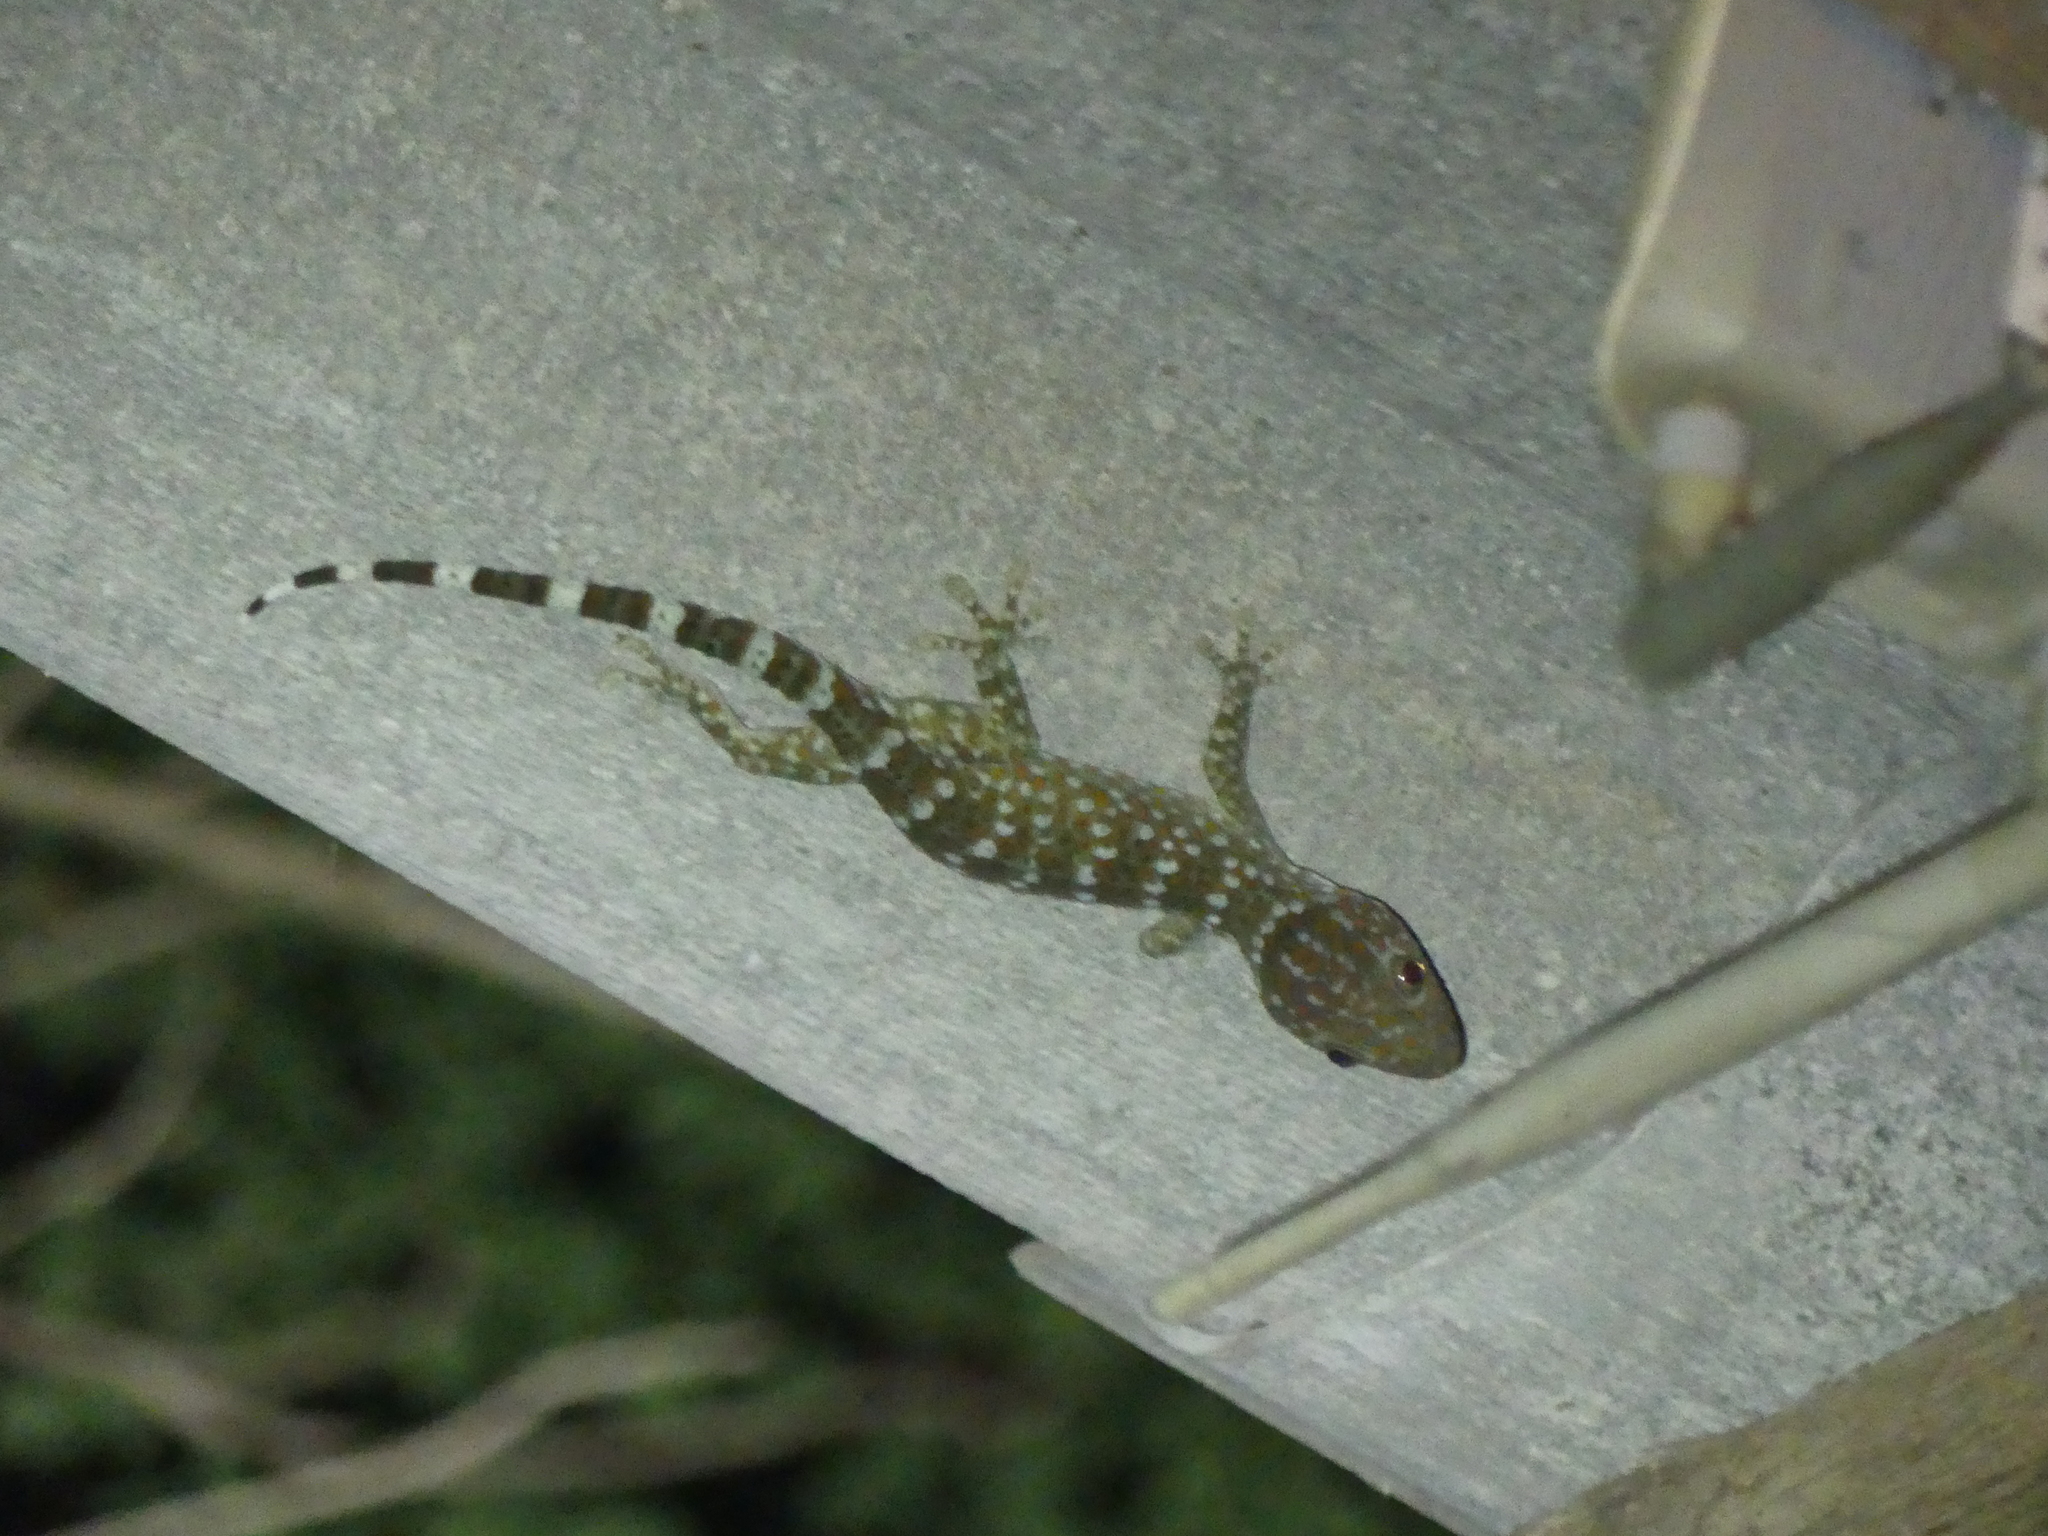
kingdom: Animalia
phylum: Chordata
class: Squamata
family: Gekkonidae
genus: Gekko
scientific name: Gekko gecko
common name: Tokay gecko
